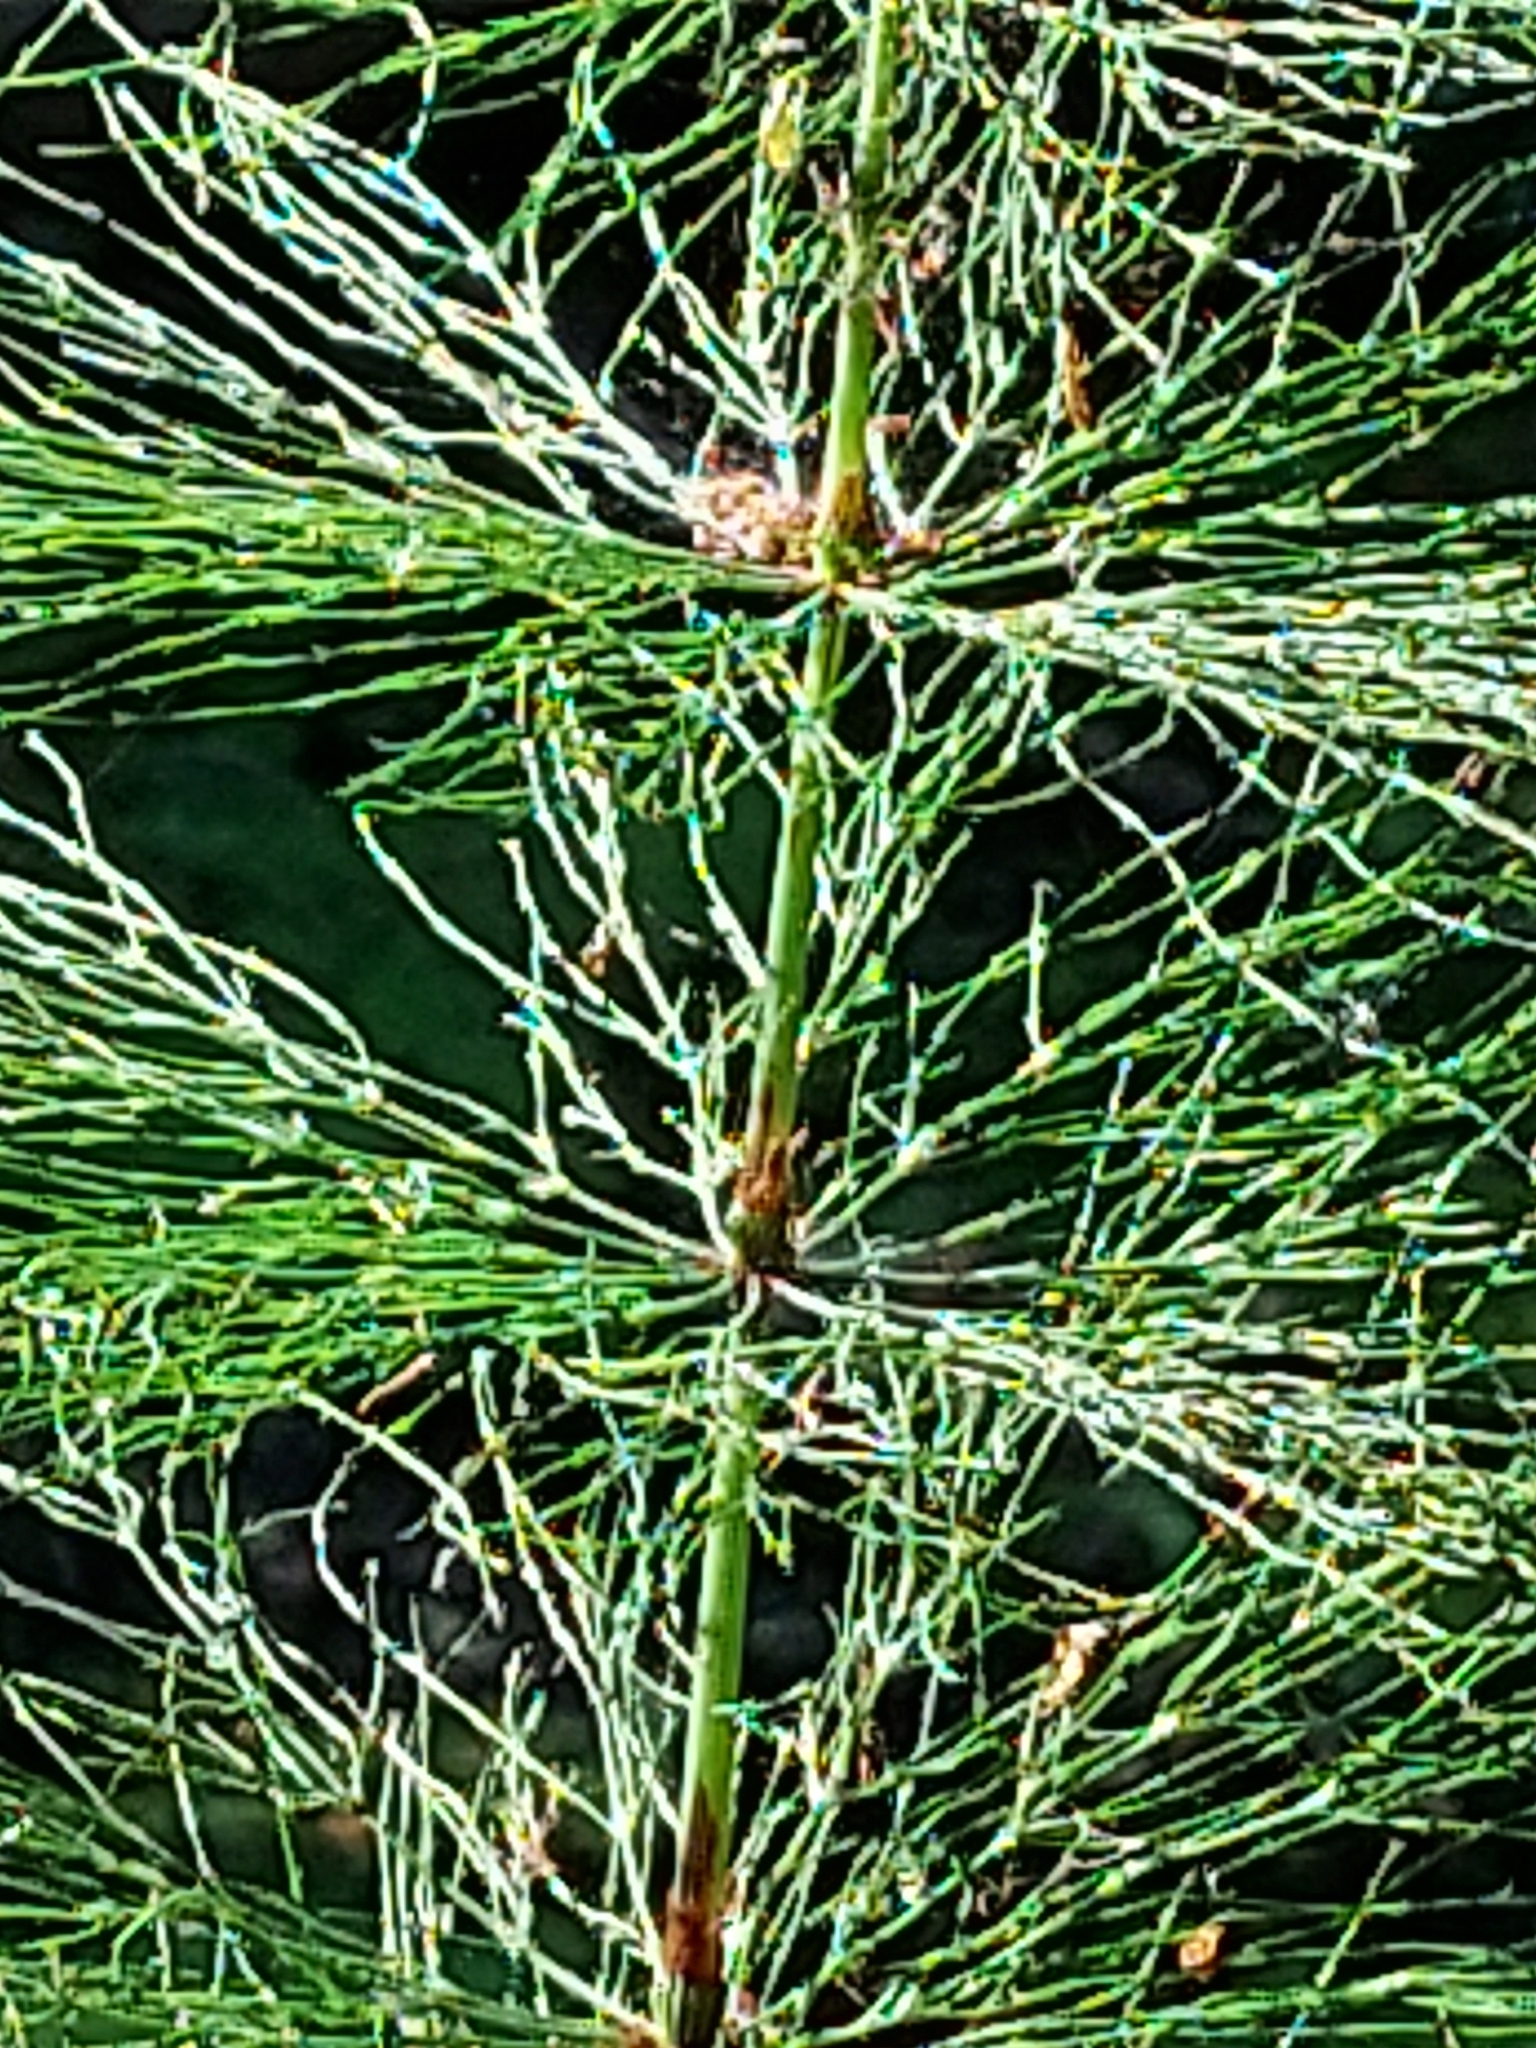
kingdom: Plantae
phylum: Tracheophyta
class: Polypodiopsida
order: Equisetales
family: Equisetaceae
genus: Equisetum
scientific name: Equisetum sylvaticum
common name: Wood horsetail
